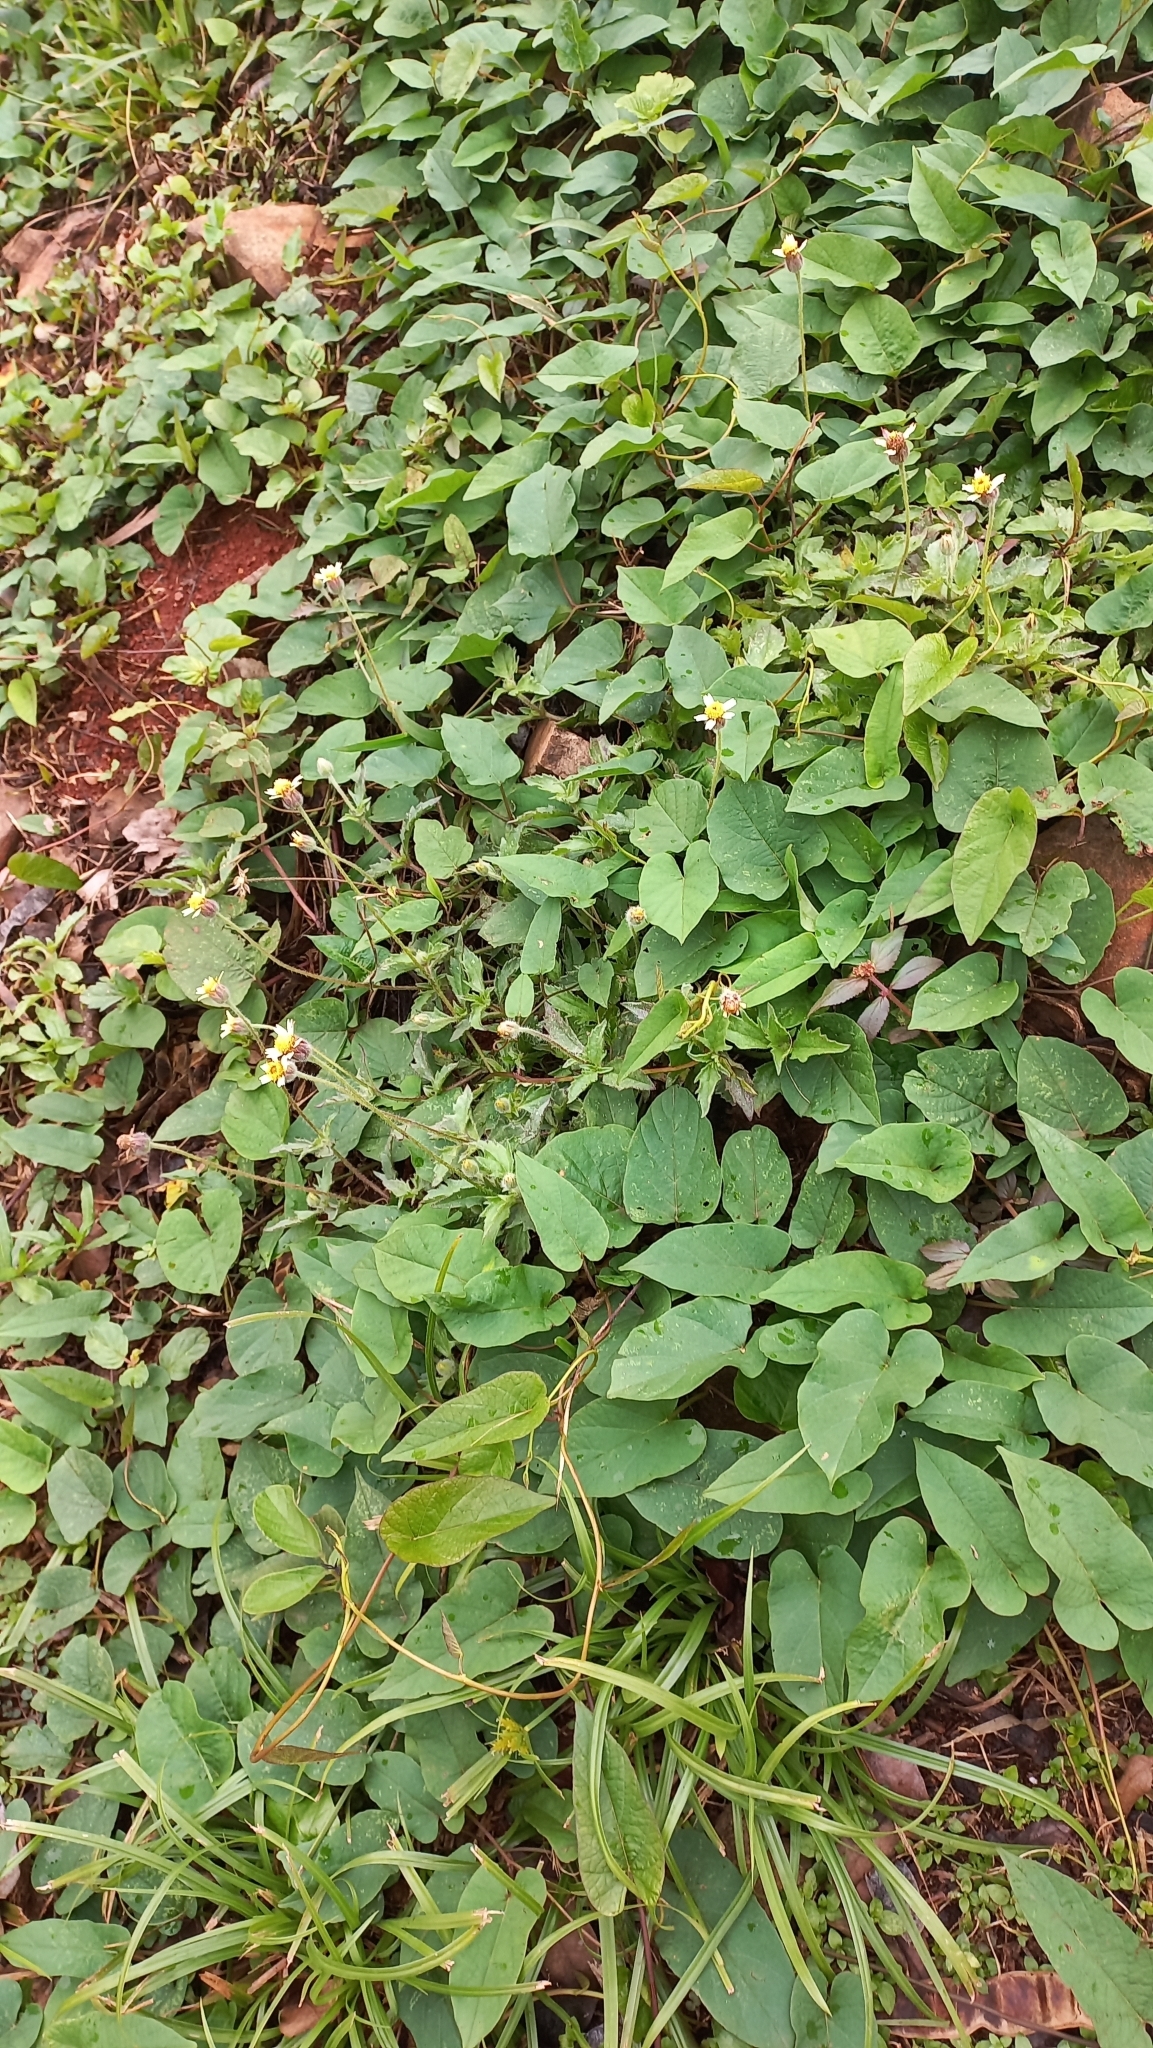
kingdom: Plantae
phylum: Tracheophyta
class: Magnoliopsida
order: Asterales
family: Asteraceae
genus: Tridax
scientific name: Tridax procumbens
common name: Coatbuttons
